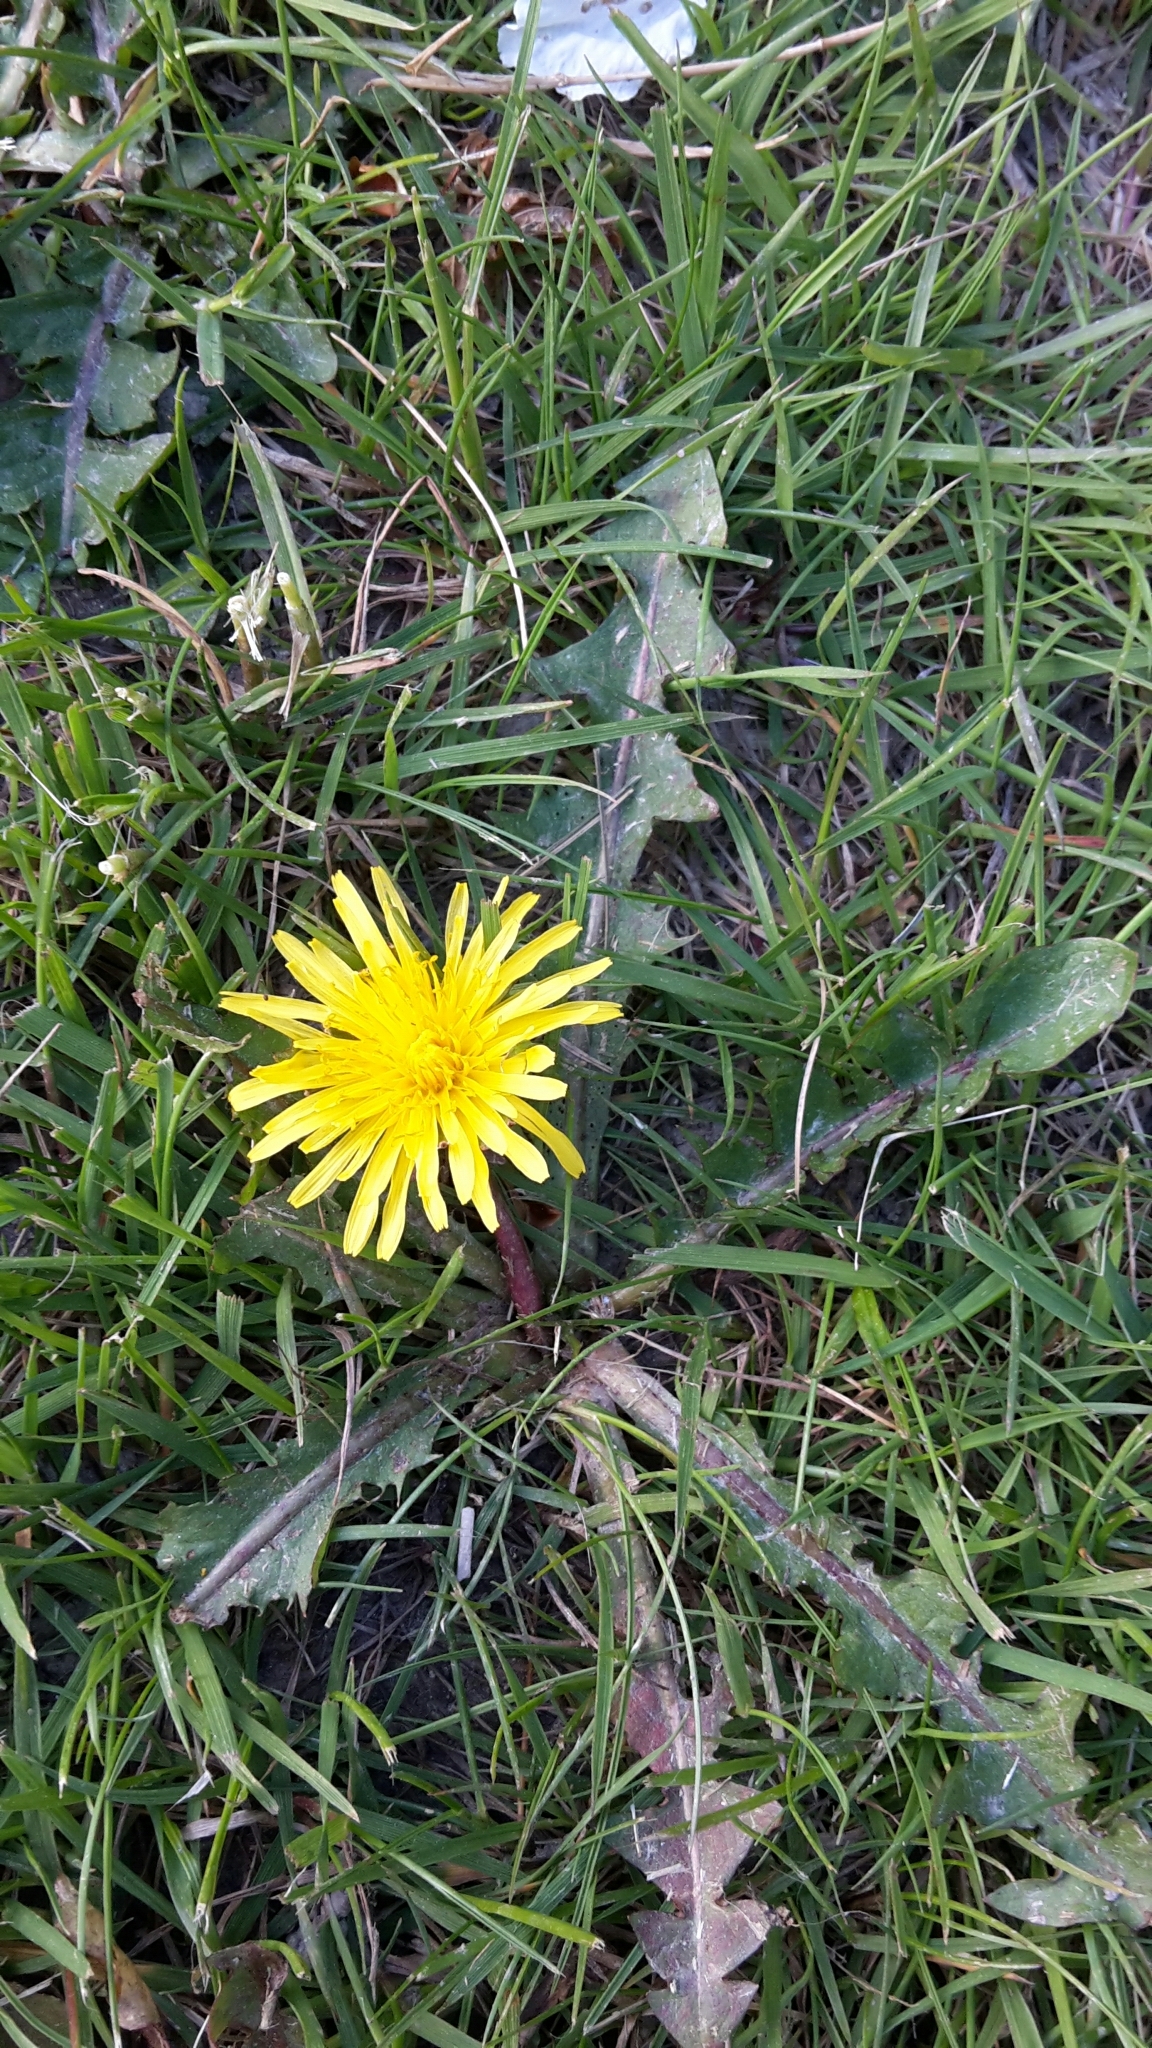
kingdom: Plantae
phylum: Tracheophyta
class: Magnoliopsida
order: Asterales
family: Asteraceae
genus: Taraxacum
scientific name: Taraxacum officinale
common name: Common dandelion
